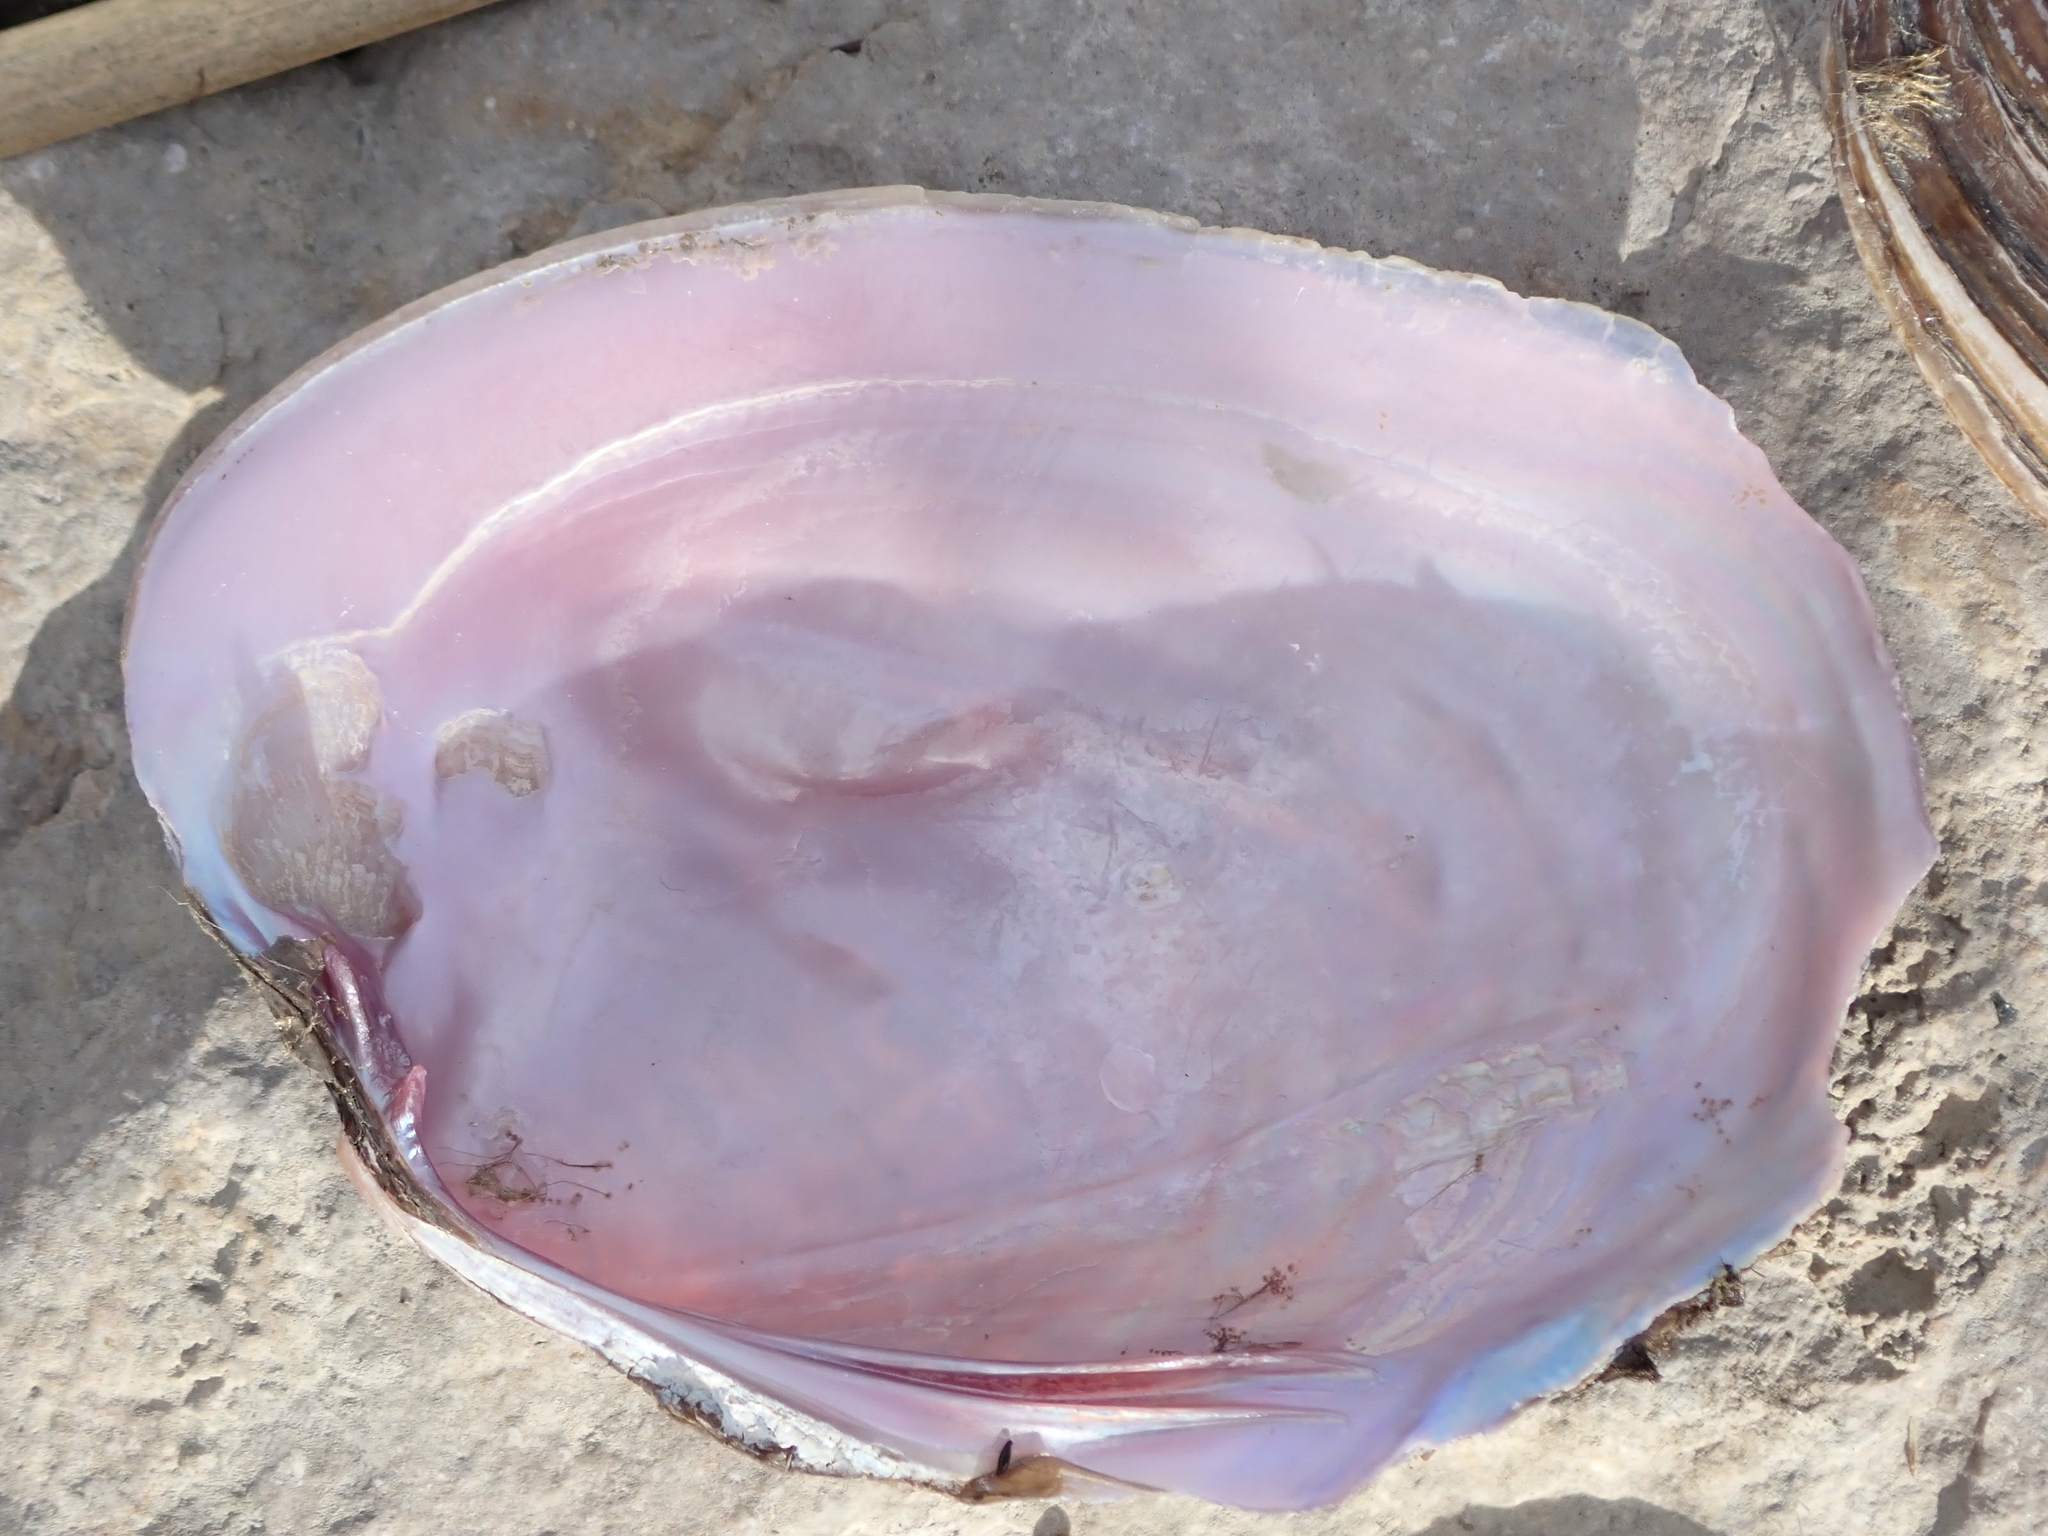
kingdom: Animalia
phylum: Mollusca
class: Bivalvia
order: Unionida
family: Unionidae
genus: Potamilus
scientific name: Potamilus alatus
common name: Pink heelsplitter
